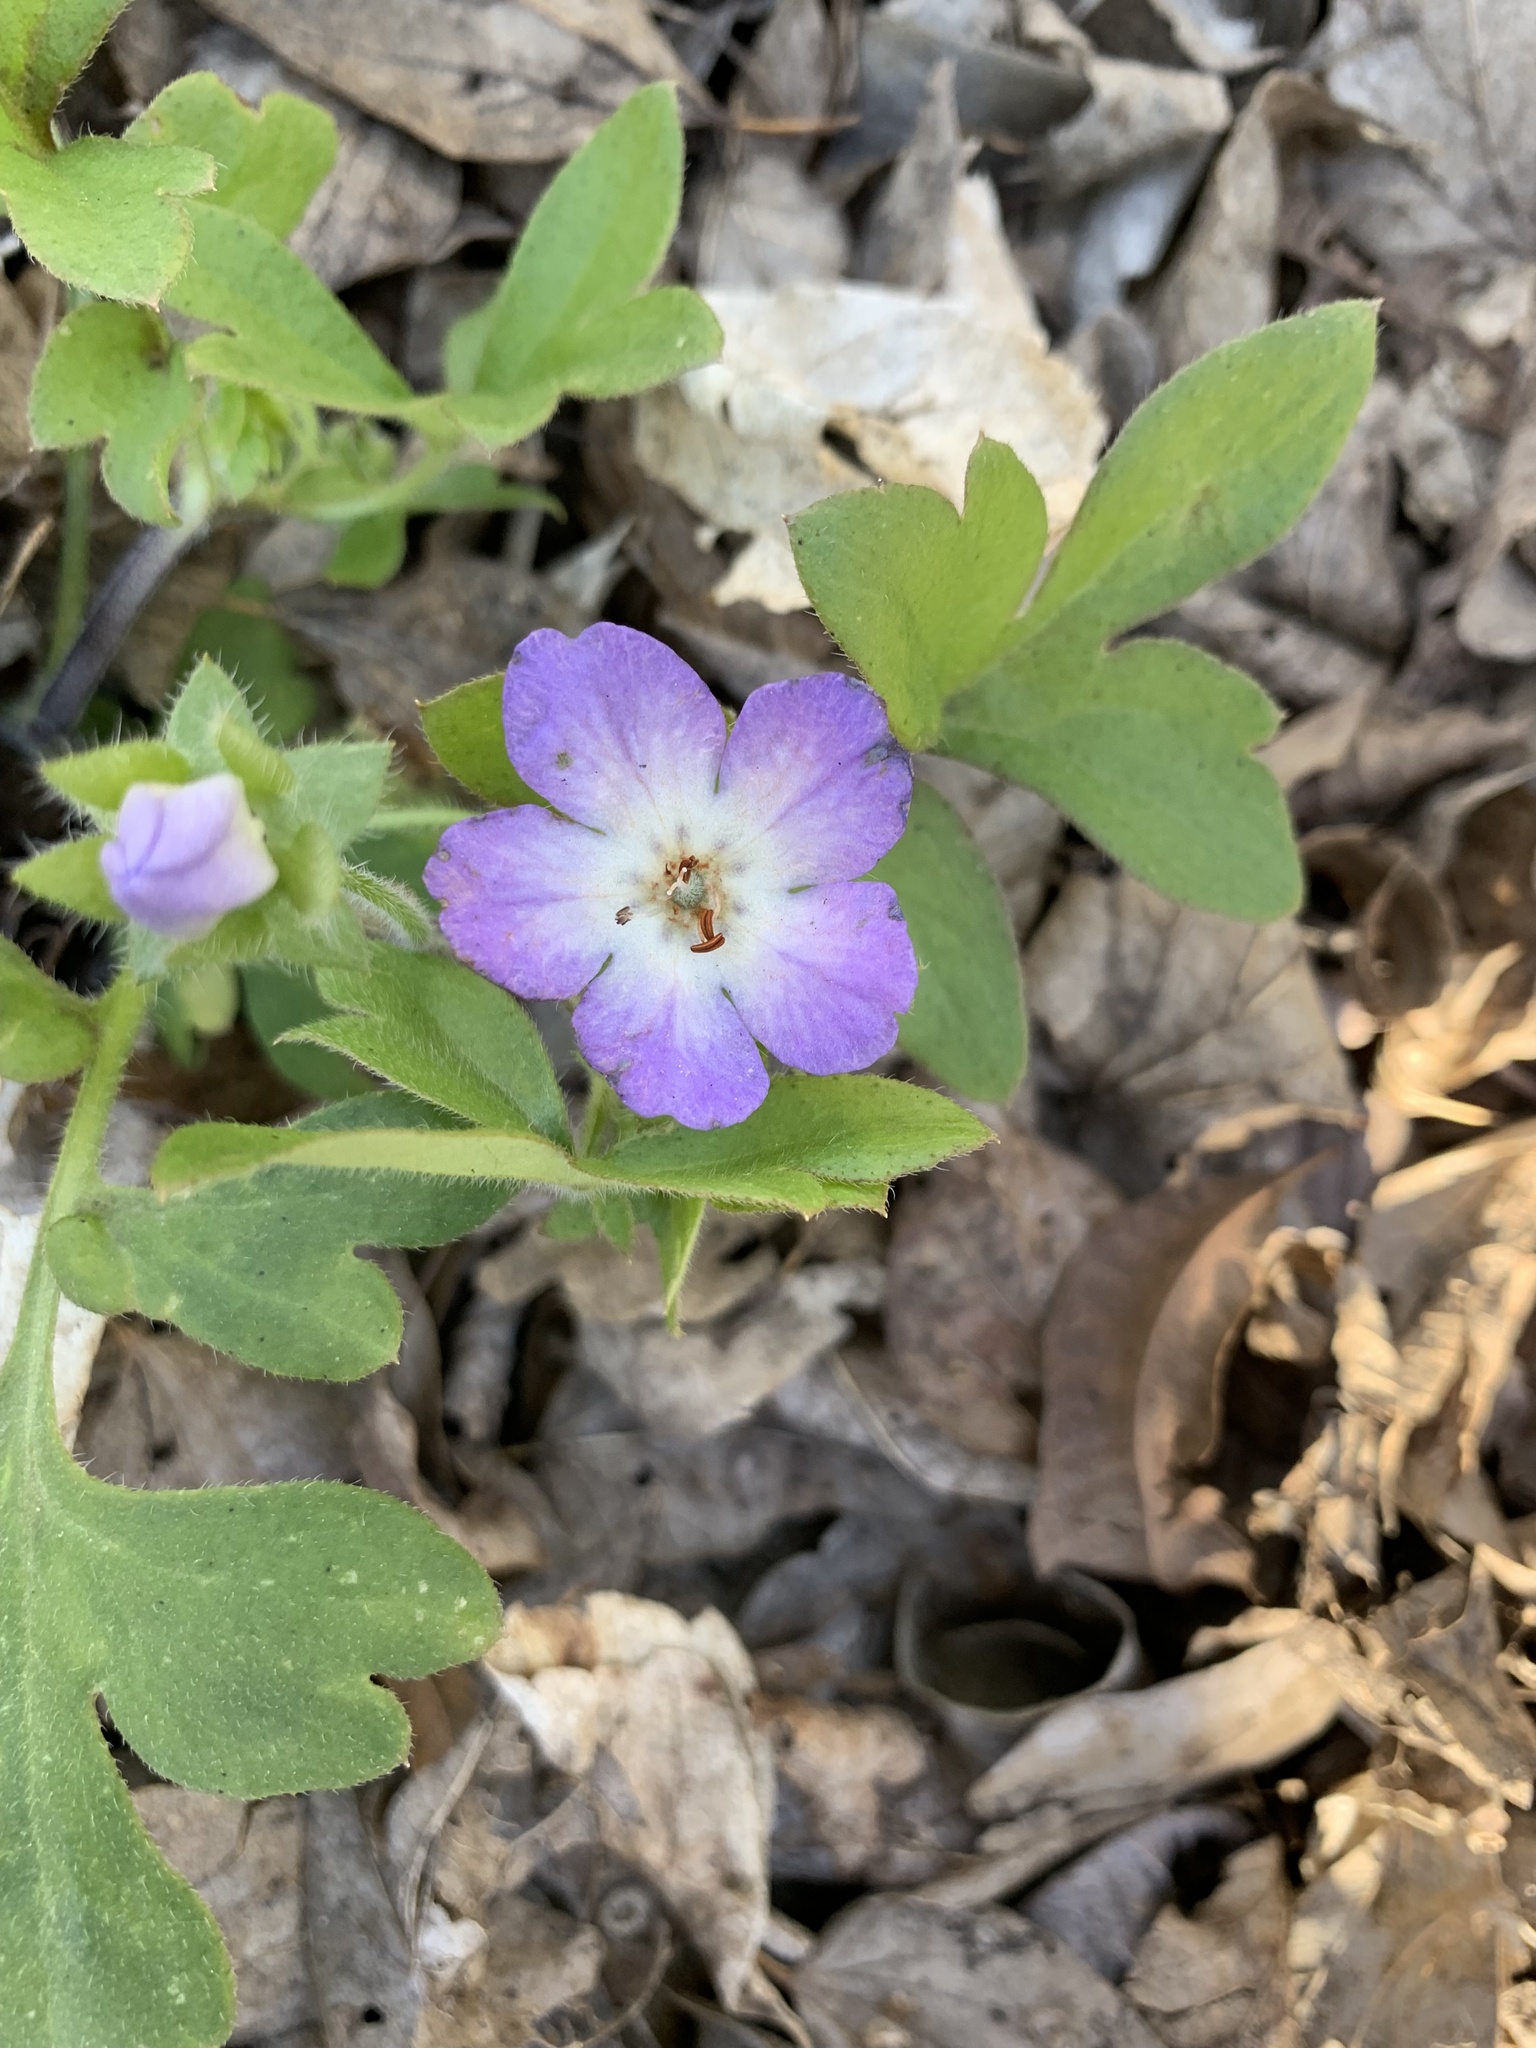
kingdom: Plantae
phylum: Tracheophyta
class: Magnoliopsida
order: Boraginales
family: Hydrophyllaceae
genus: Nemophila
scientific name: Nemophila phacelioides
